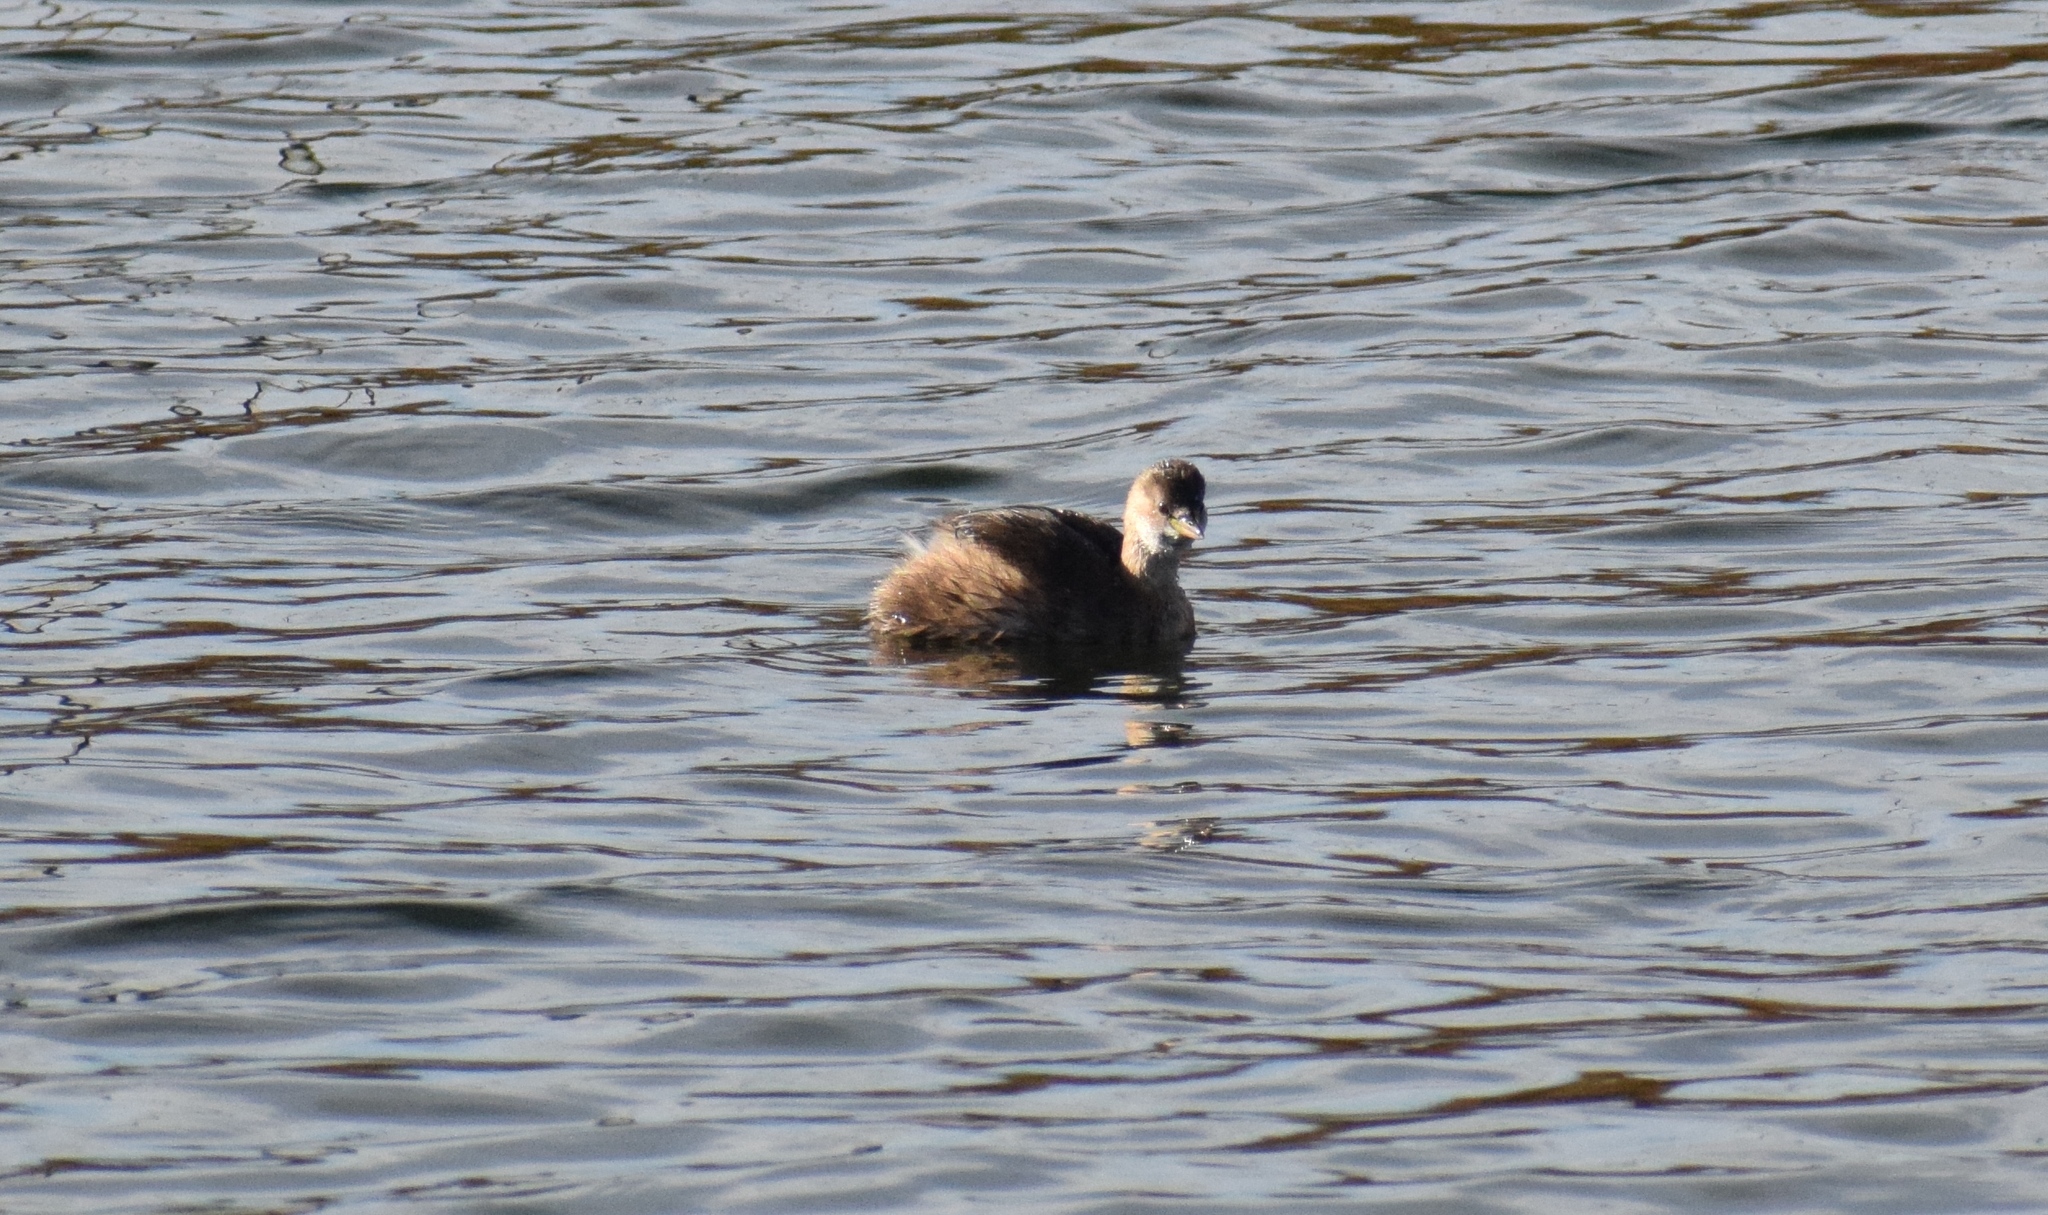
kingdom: Animalia
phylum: Chordata
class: Aves
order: Podicipediformes
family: Podicipedidae
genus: Tachybaptus
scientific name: Tachybaptus ruficollis
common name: Little grebe
